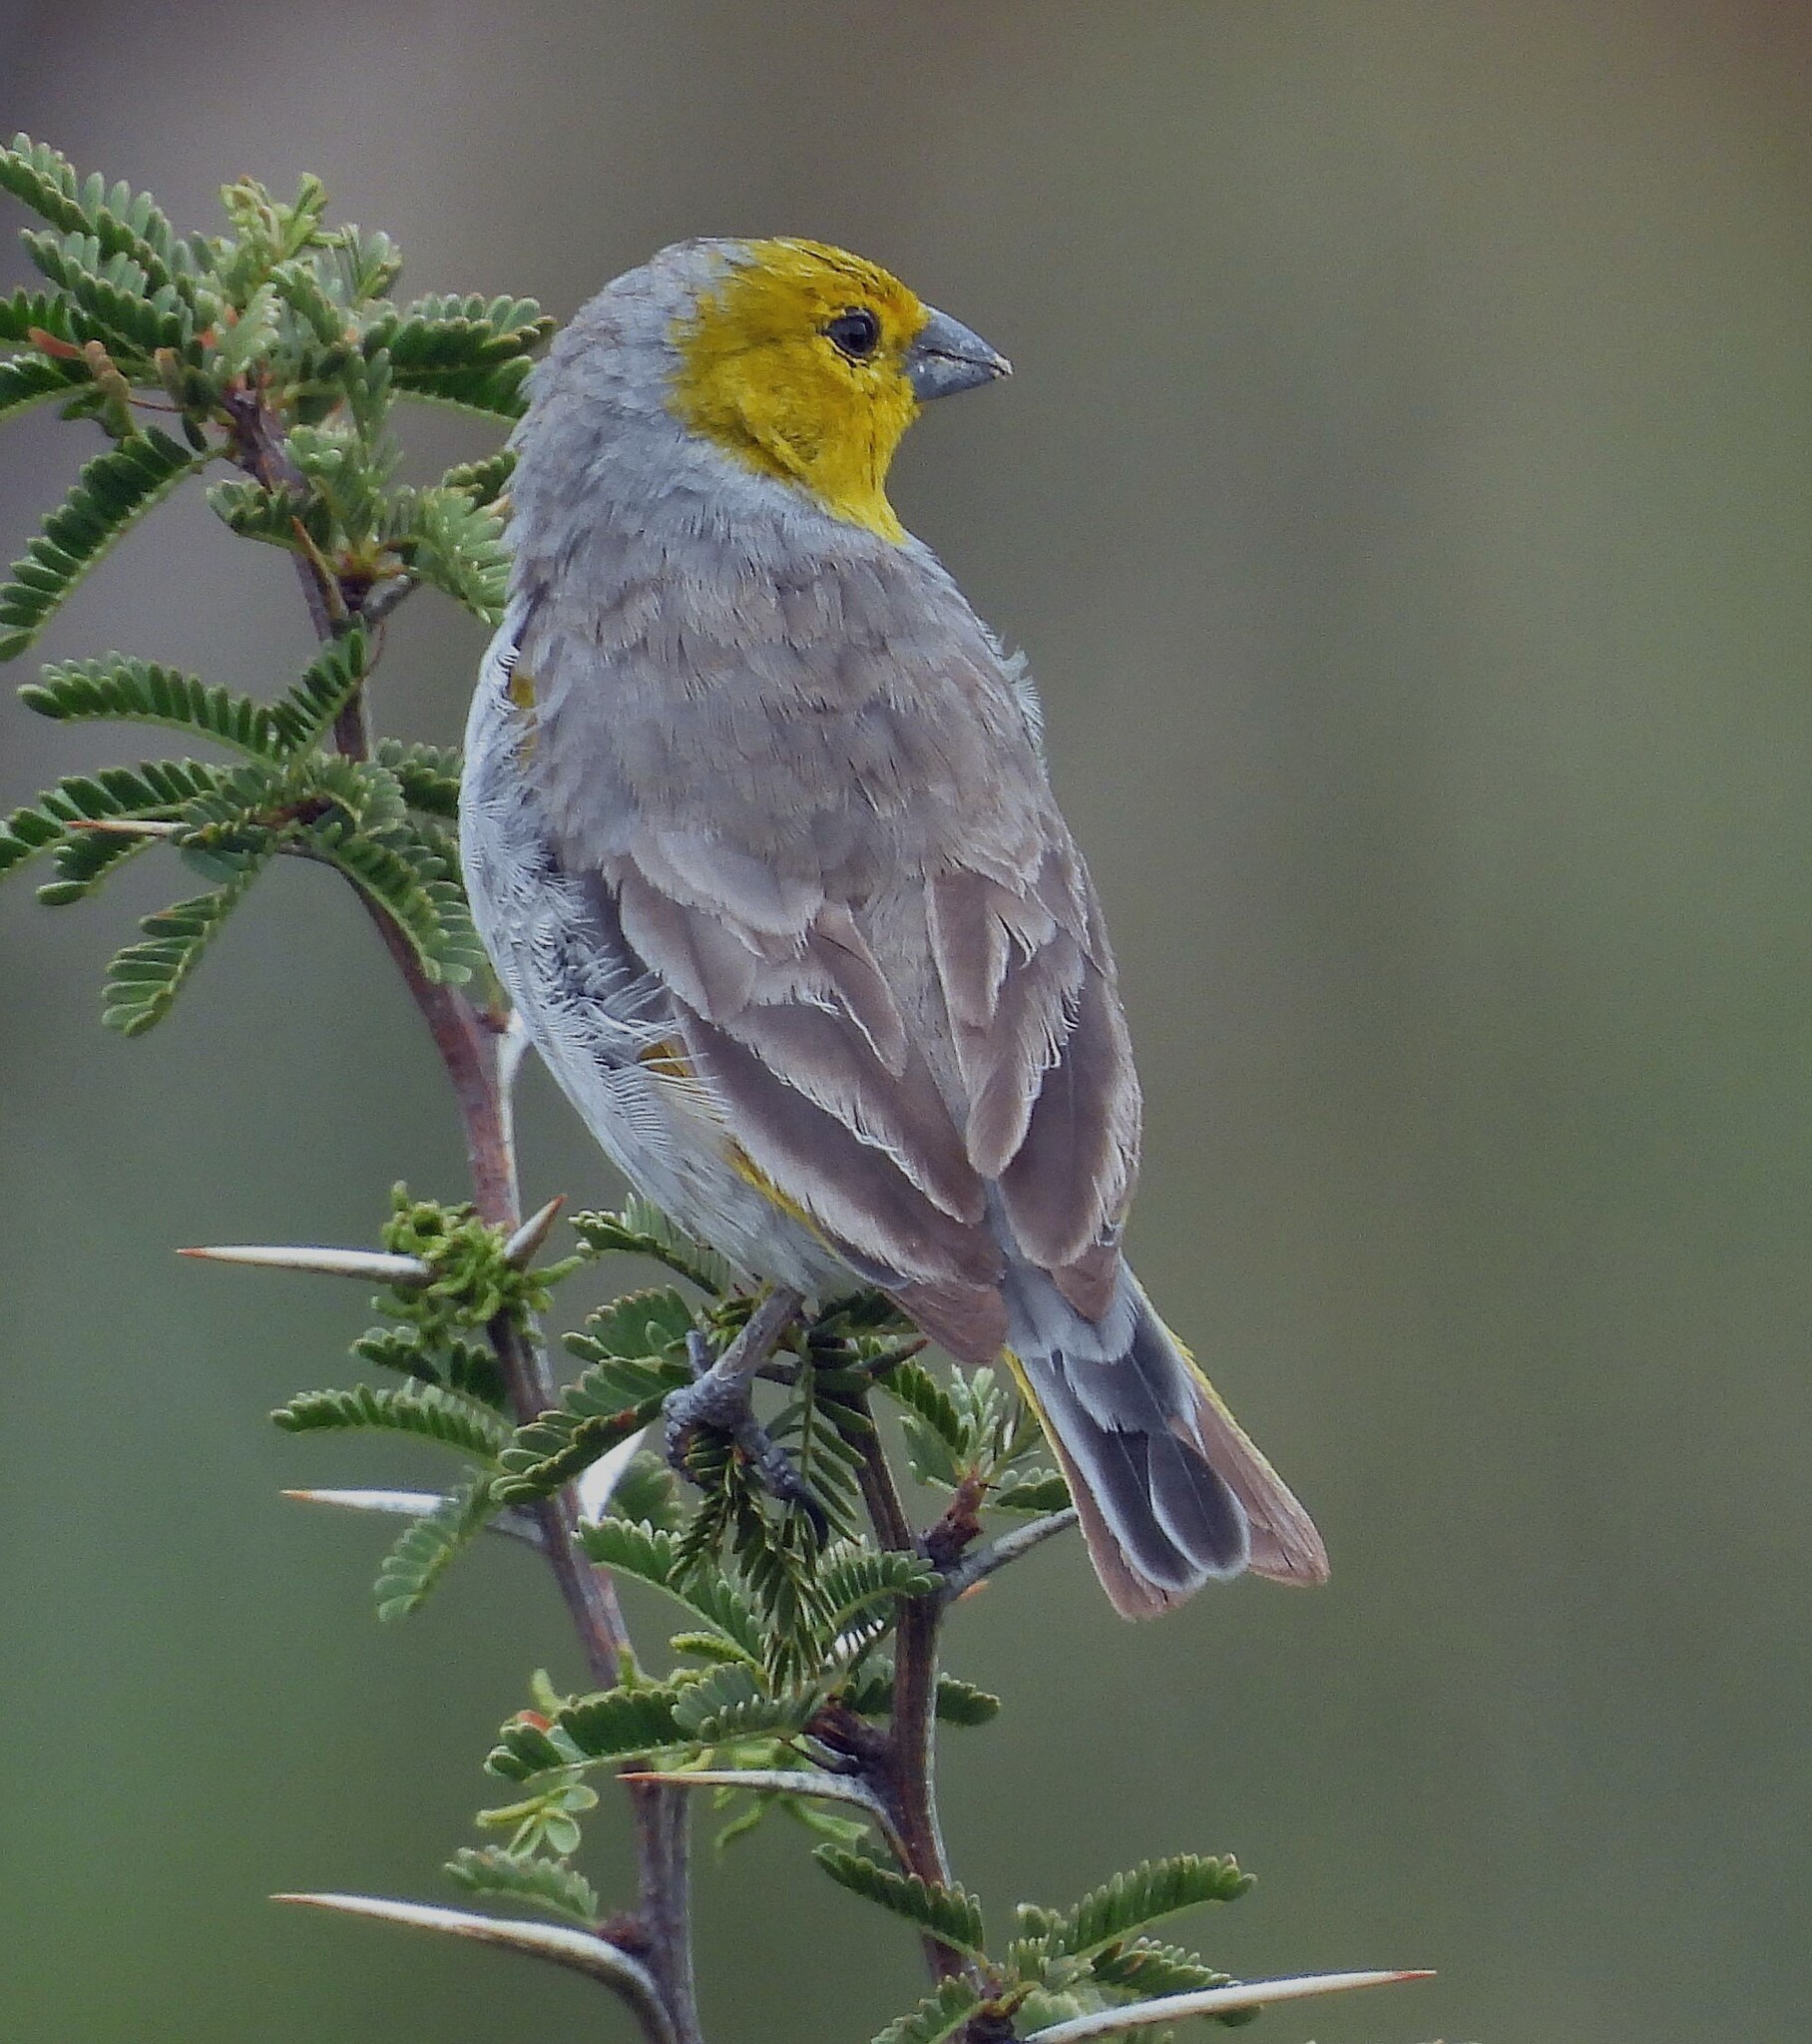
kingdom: Animalia
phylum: Chordata
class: Aves
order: Passeriformes
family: Thraupidae
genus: Sicalis
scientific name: Sicalis luteocephala
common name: Citron-headed yellow finch
